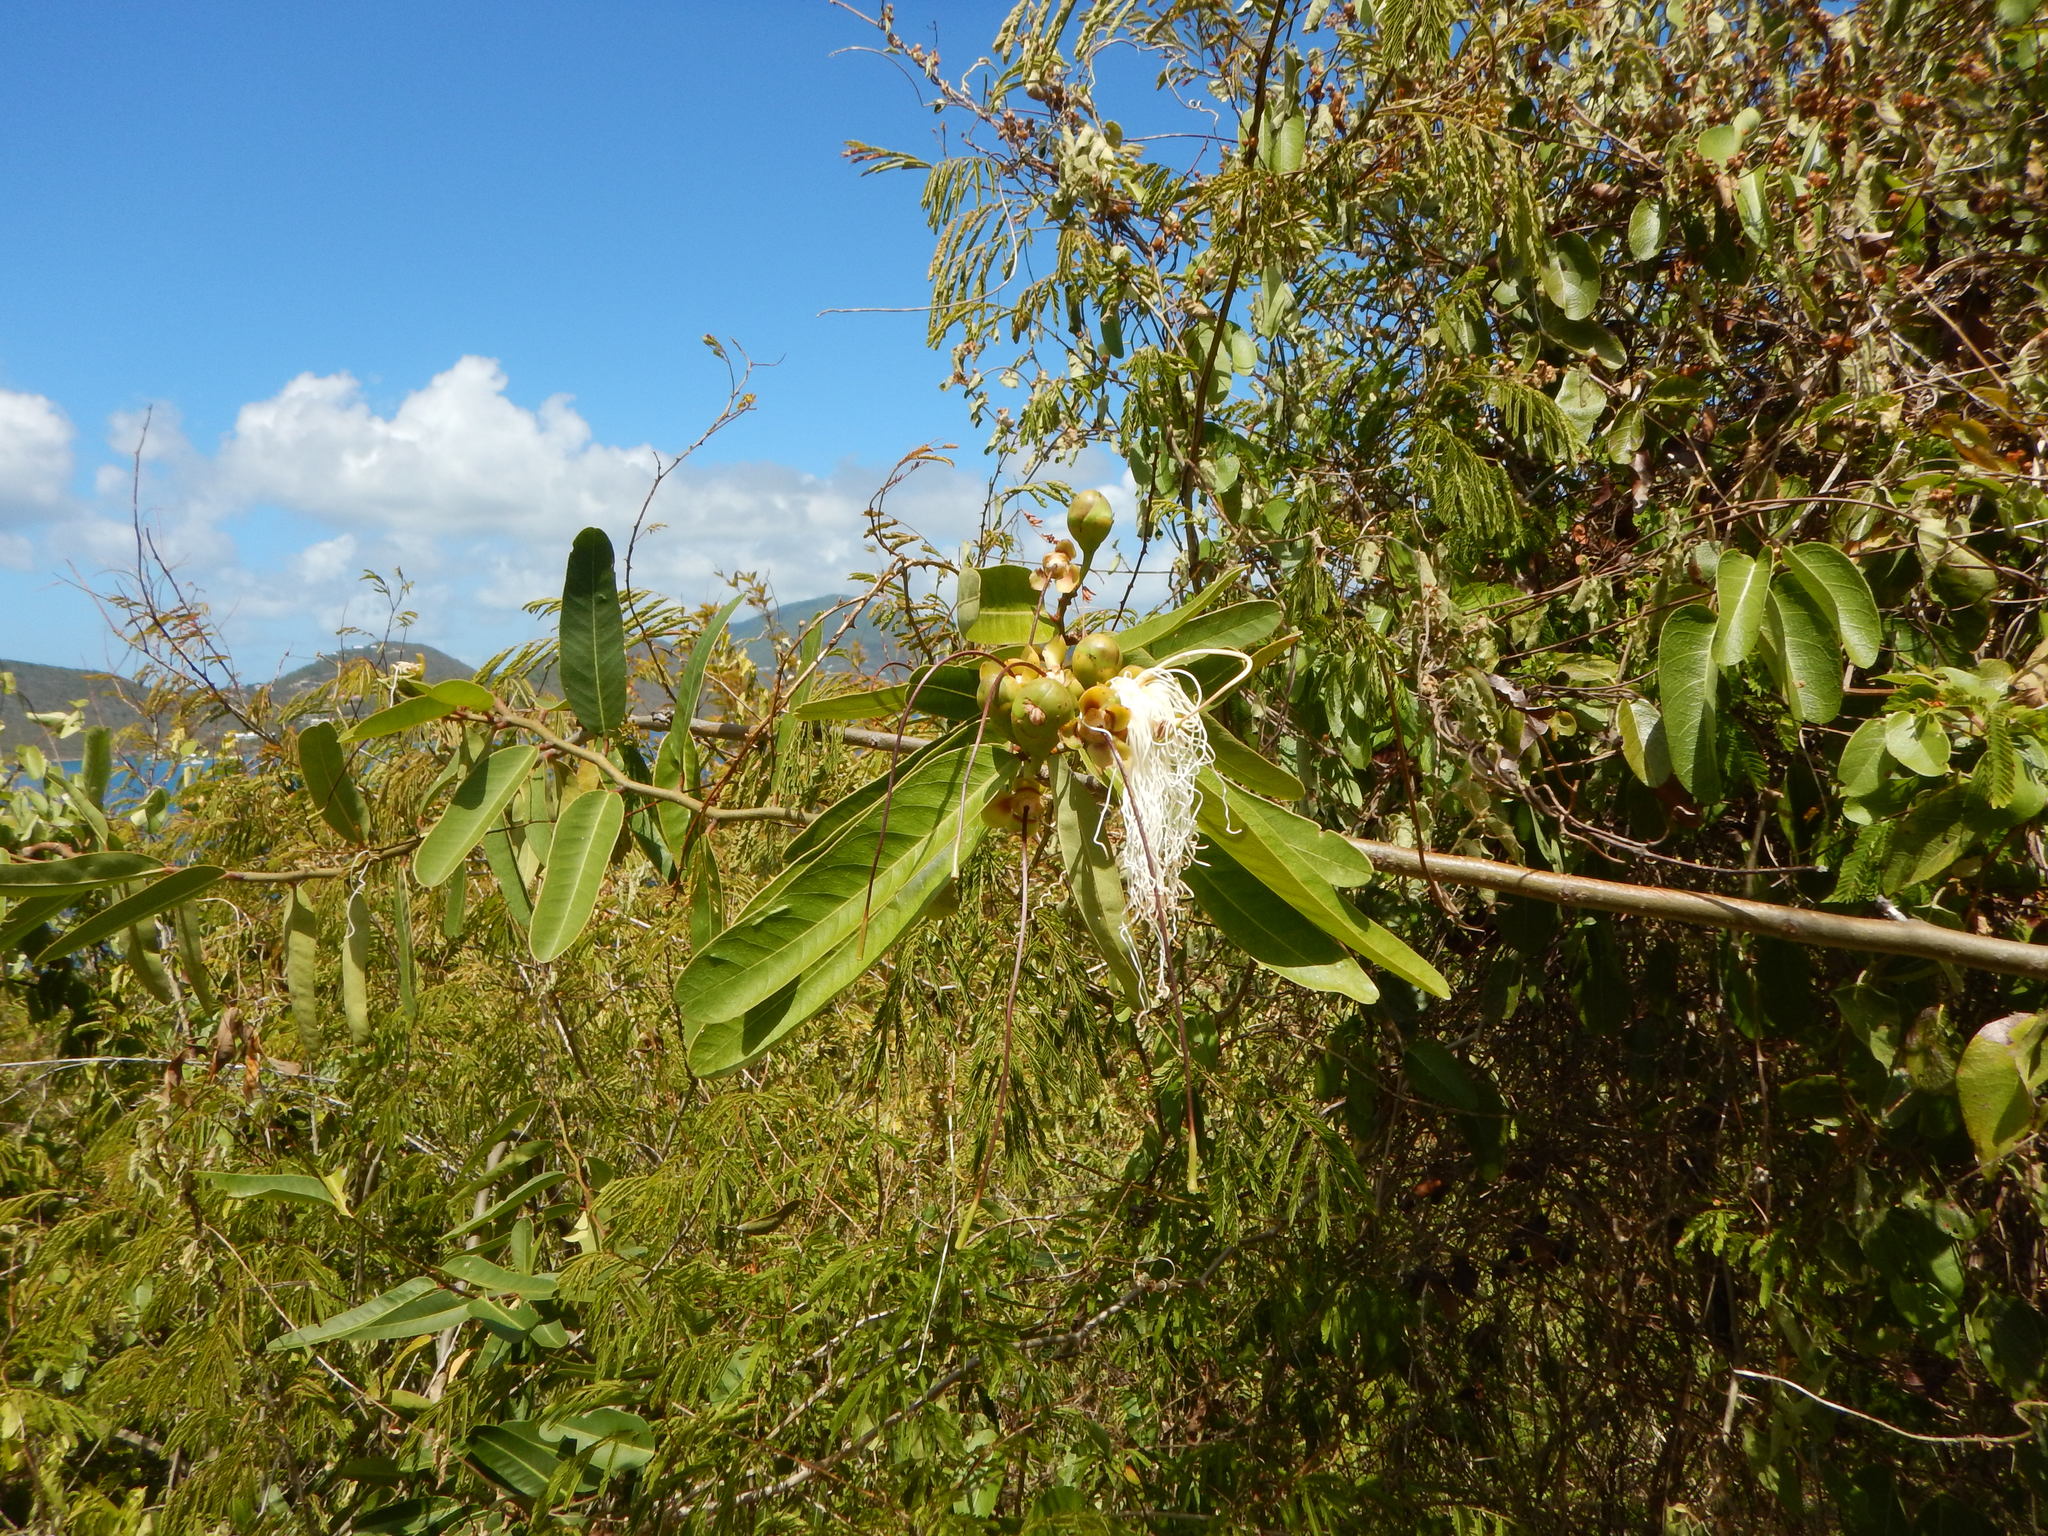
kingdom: Plantae
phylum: Tracheophyta
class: Magnoliopsida
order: Brassicales
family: Capparaceae
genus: Cynophalla
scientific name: Cynophalla flexuosa
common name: Capertree
